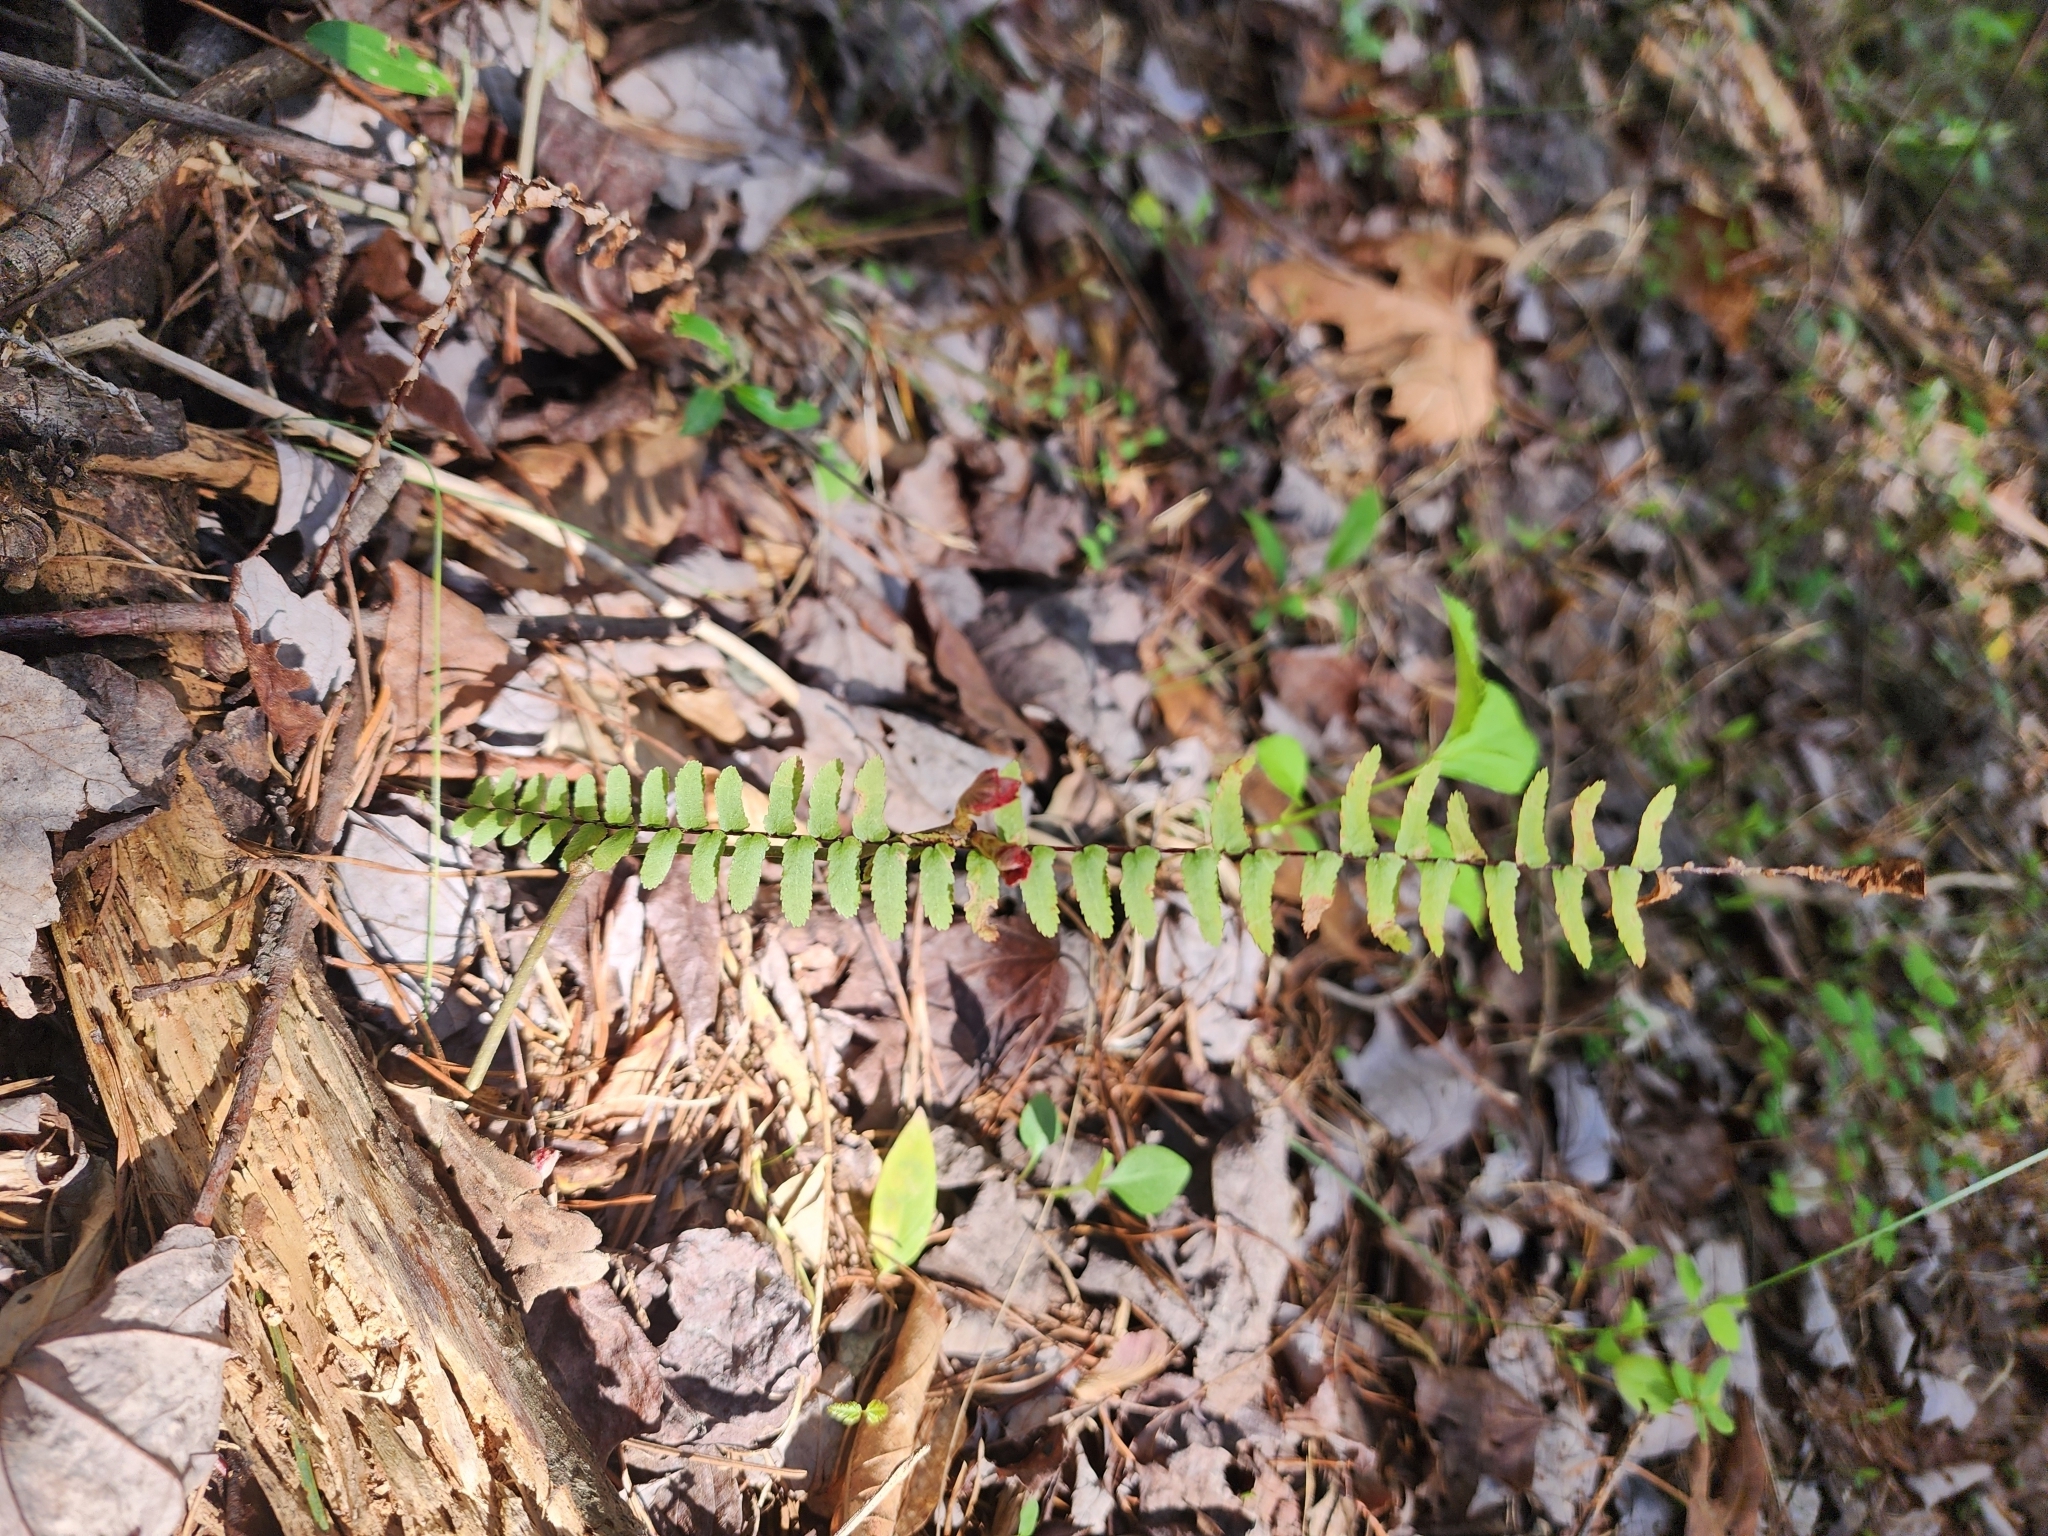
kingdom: Plantae
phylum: Tracheophyta
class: Polypodiopsida
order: Polypodiales
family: Aspleniaceae
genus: Asplenium
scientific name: Asplenium platyneuron
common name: Ebony spleenwort
